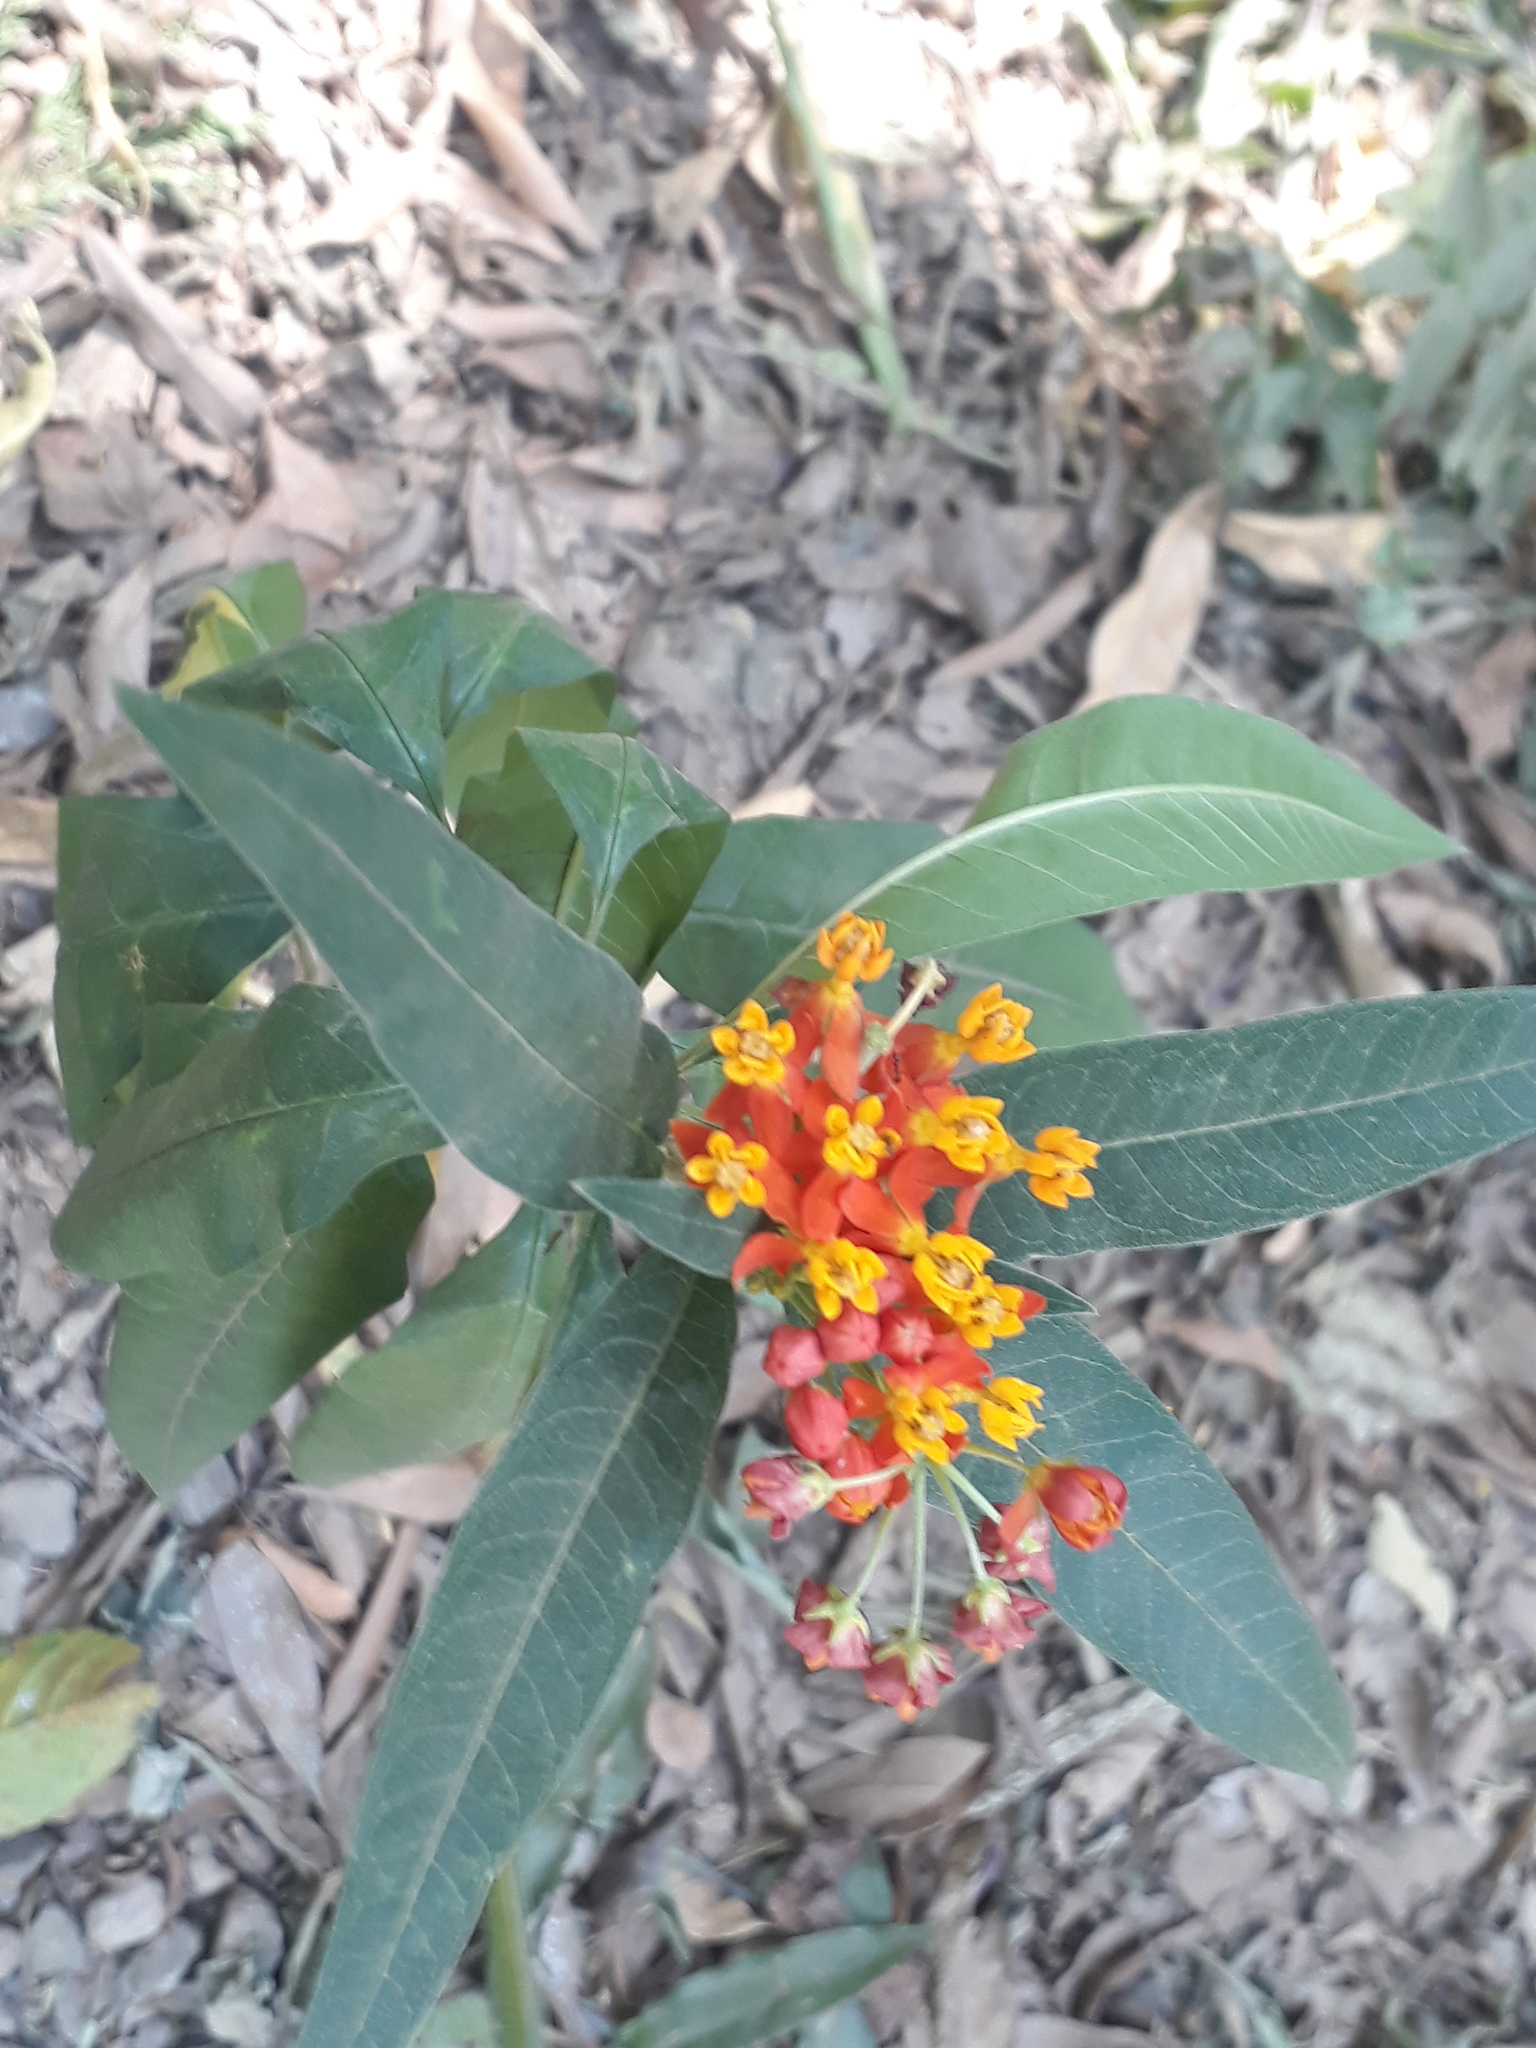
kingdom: Plantae
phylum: Tracheophyta
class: Magnoliopsida
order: Gentianales
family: Apocynaceae
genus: Asclepias
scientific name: Asclepias curassavica
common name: Bloodflower
